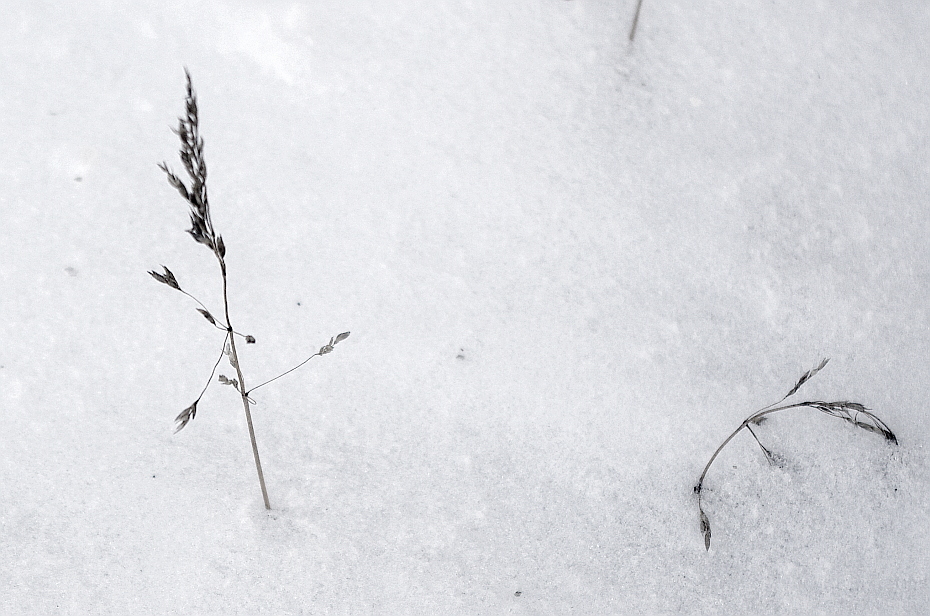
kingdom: Plantae
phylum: Tracheophyta
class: Liliopsida
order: Poales
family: Poaceae
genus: Poa
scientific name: Poa annua
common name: Annual bluegrass
